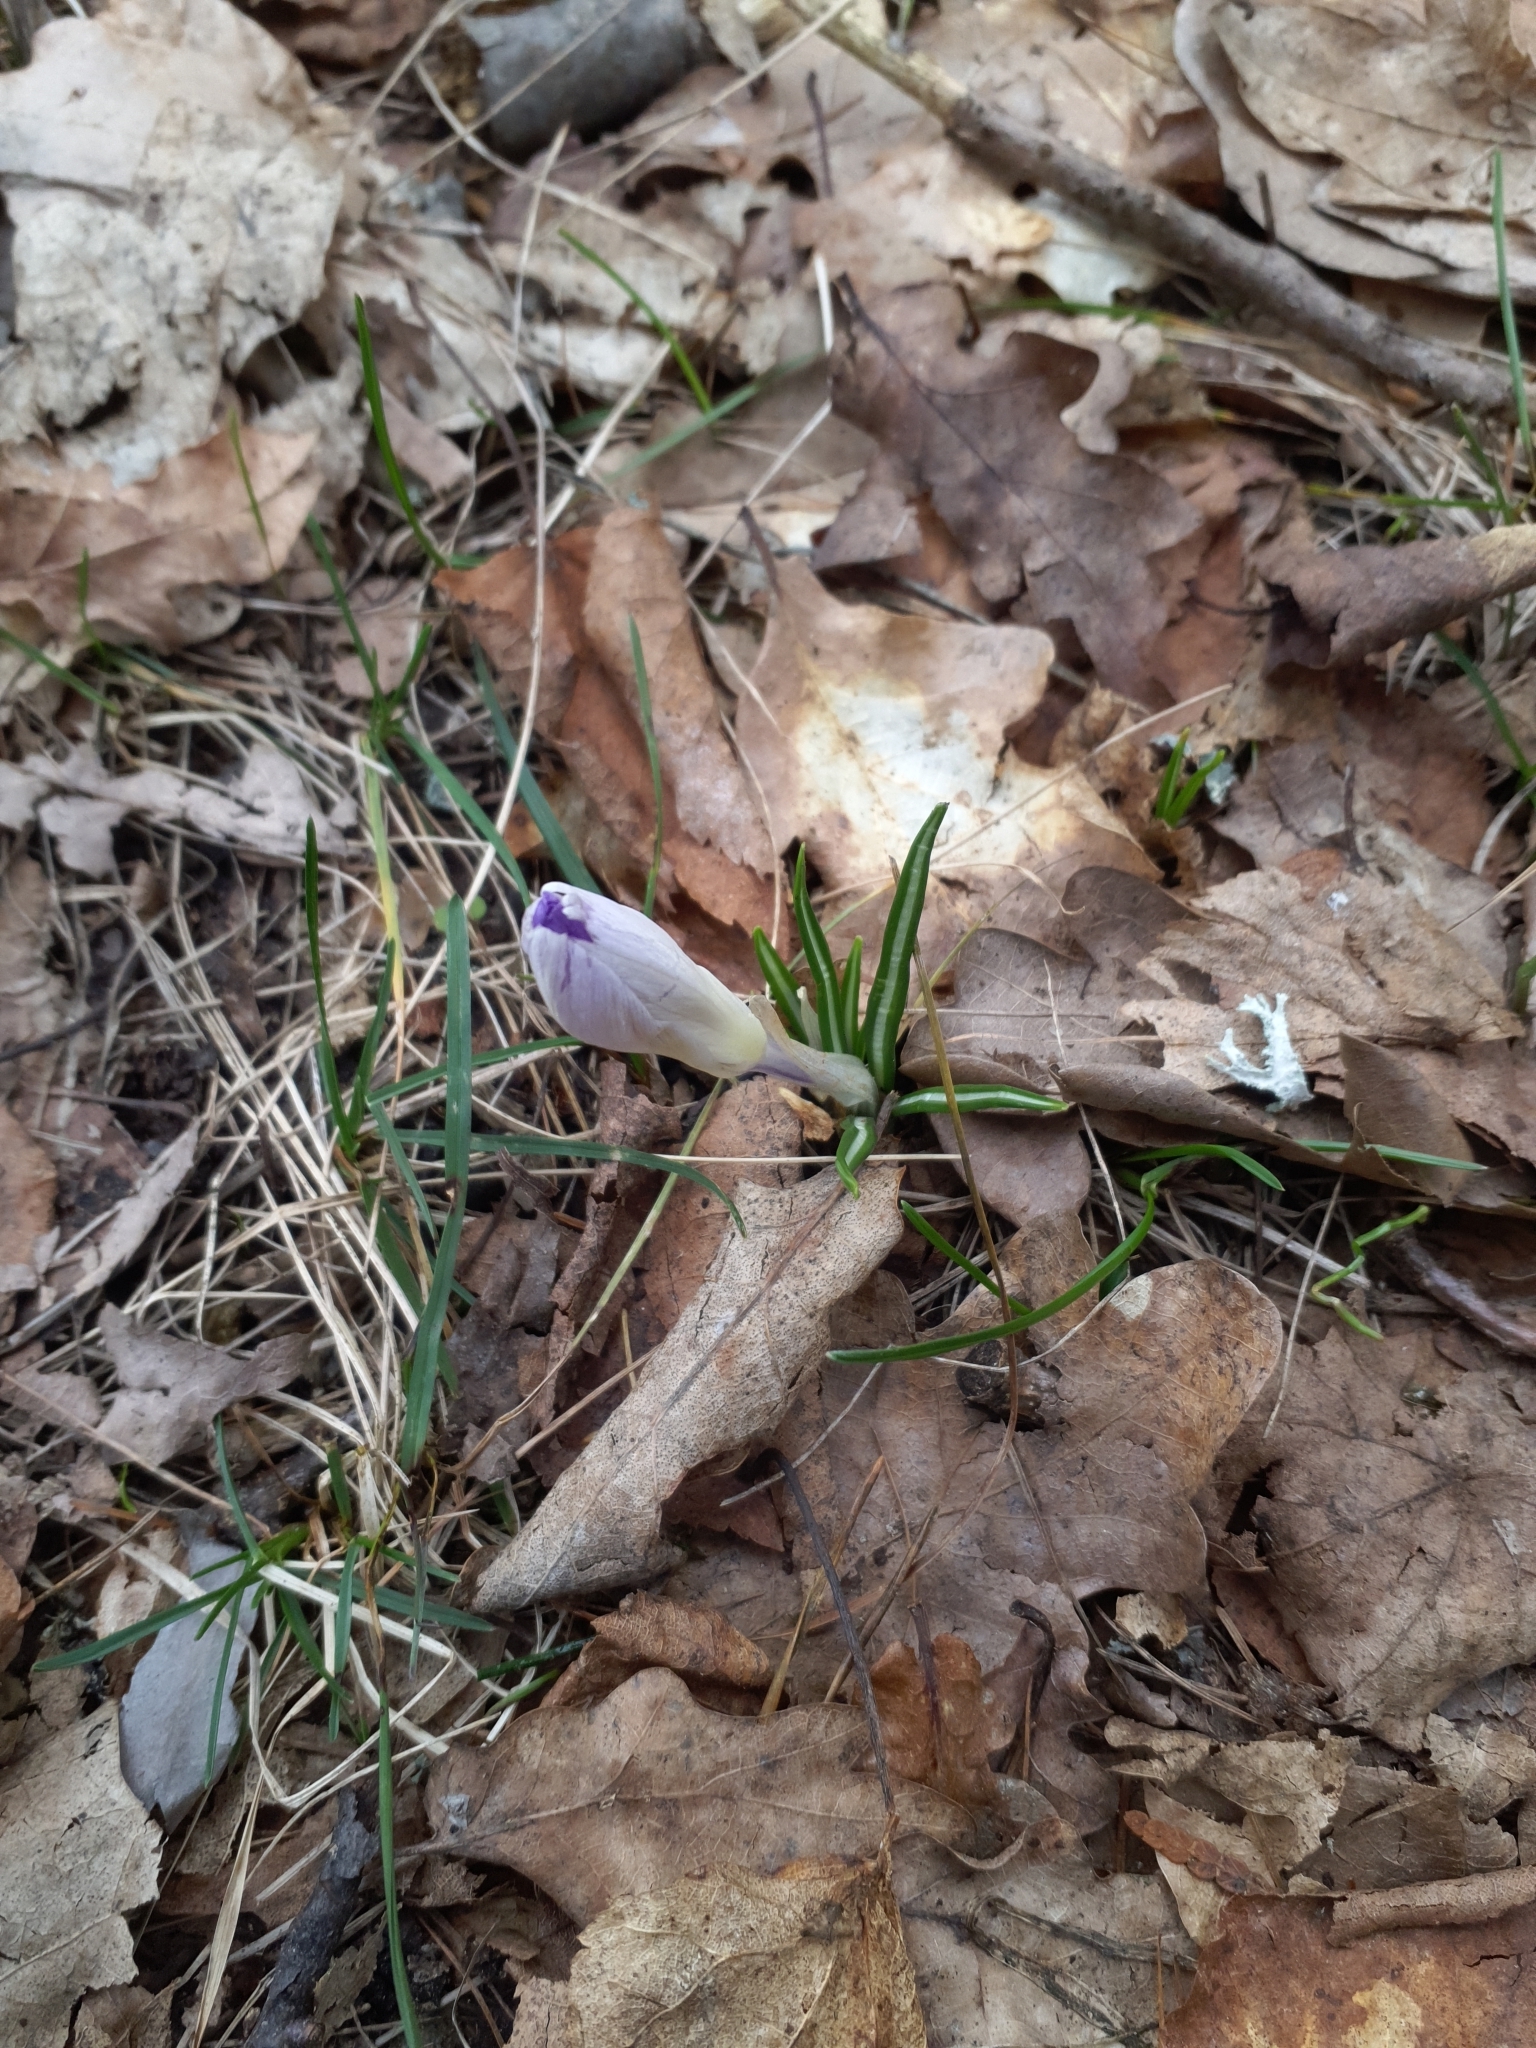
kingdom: Plantae
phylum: Tracheophyta
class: Liliopsida
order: Asparagales
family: Iridaceae
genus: Crocus
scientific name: Crocus tommasinianus
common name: Early crocus
